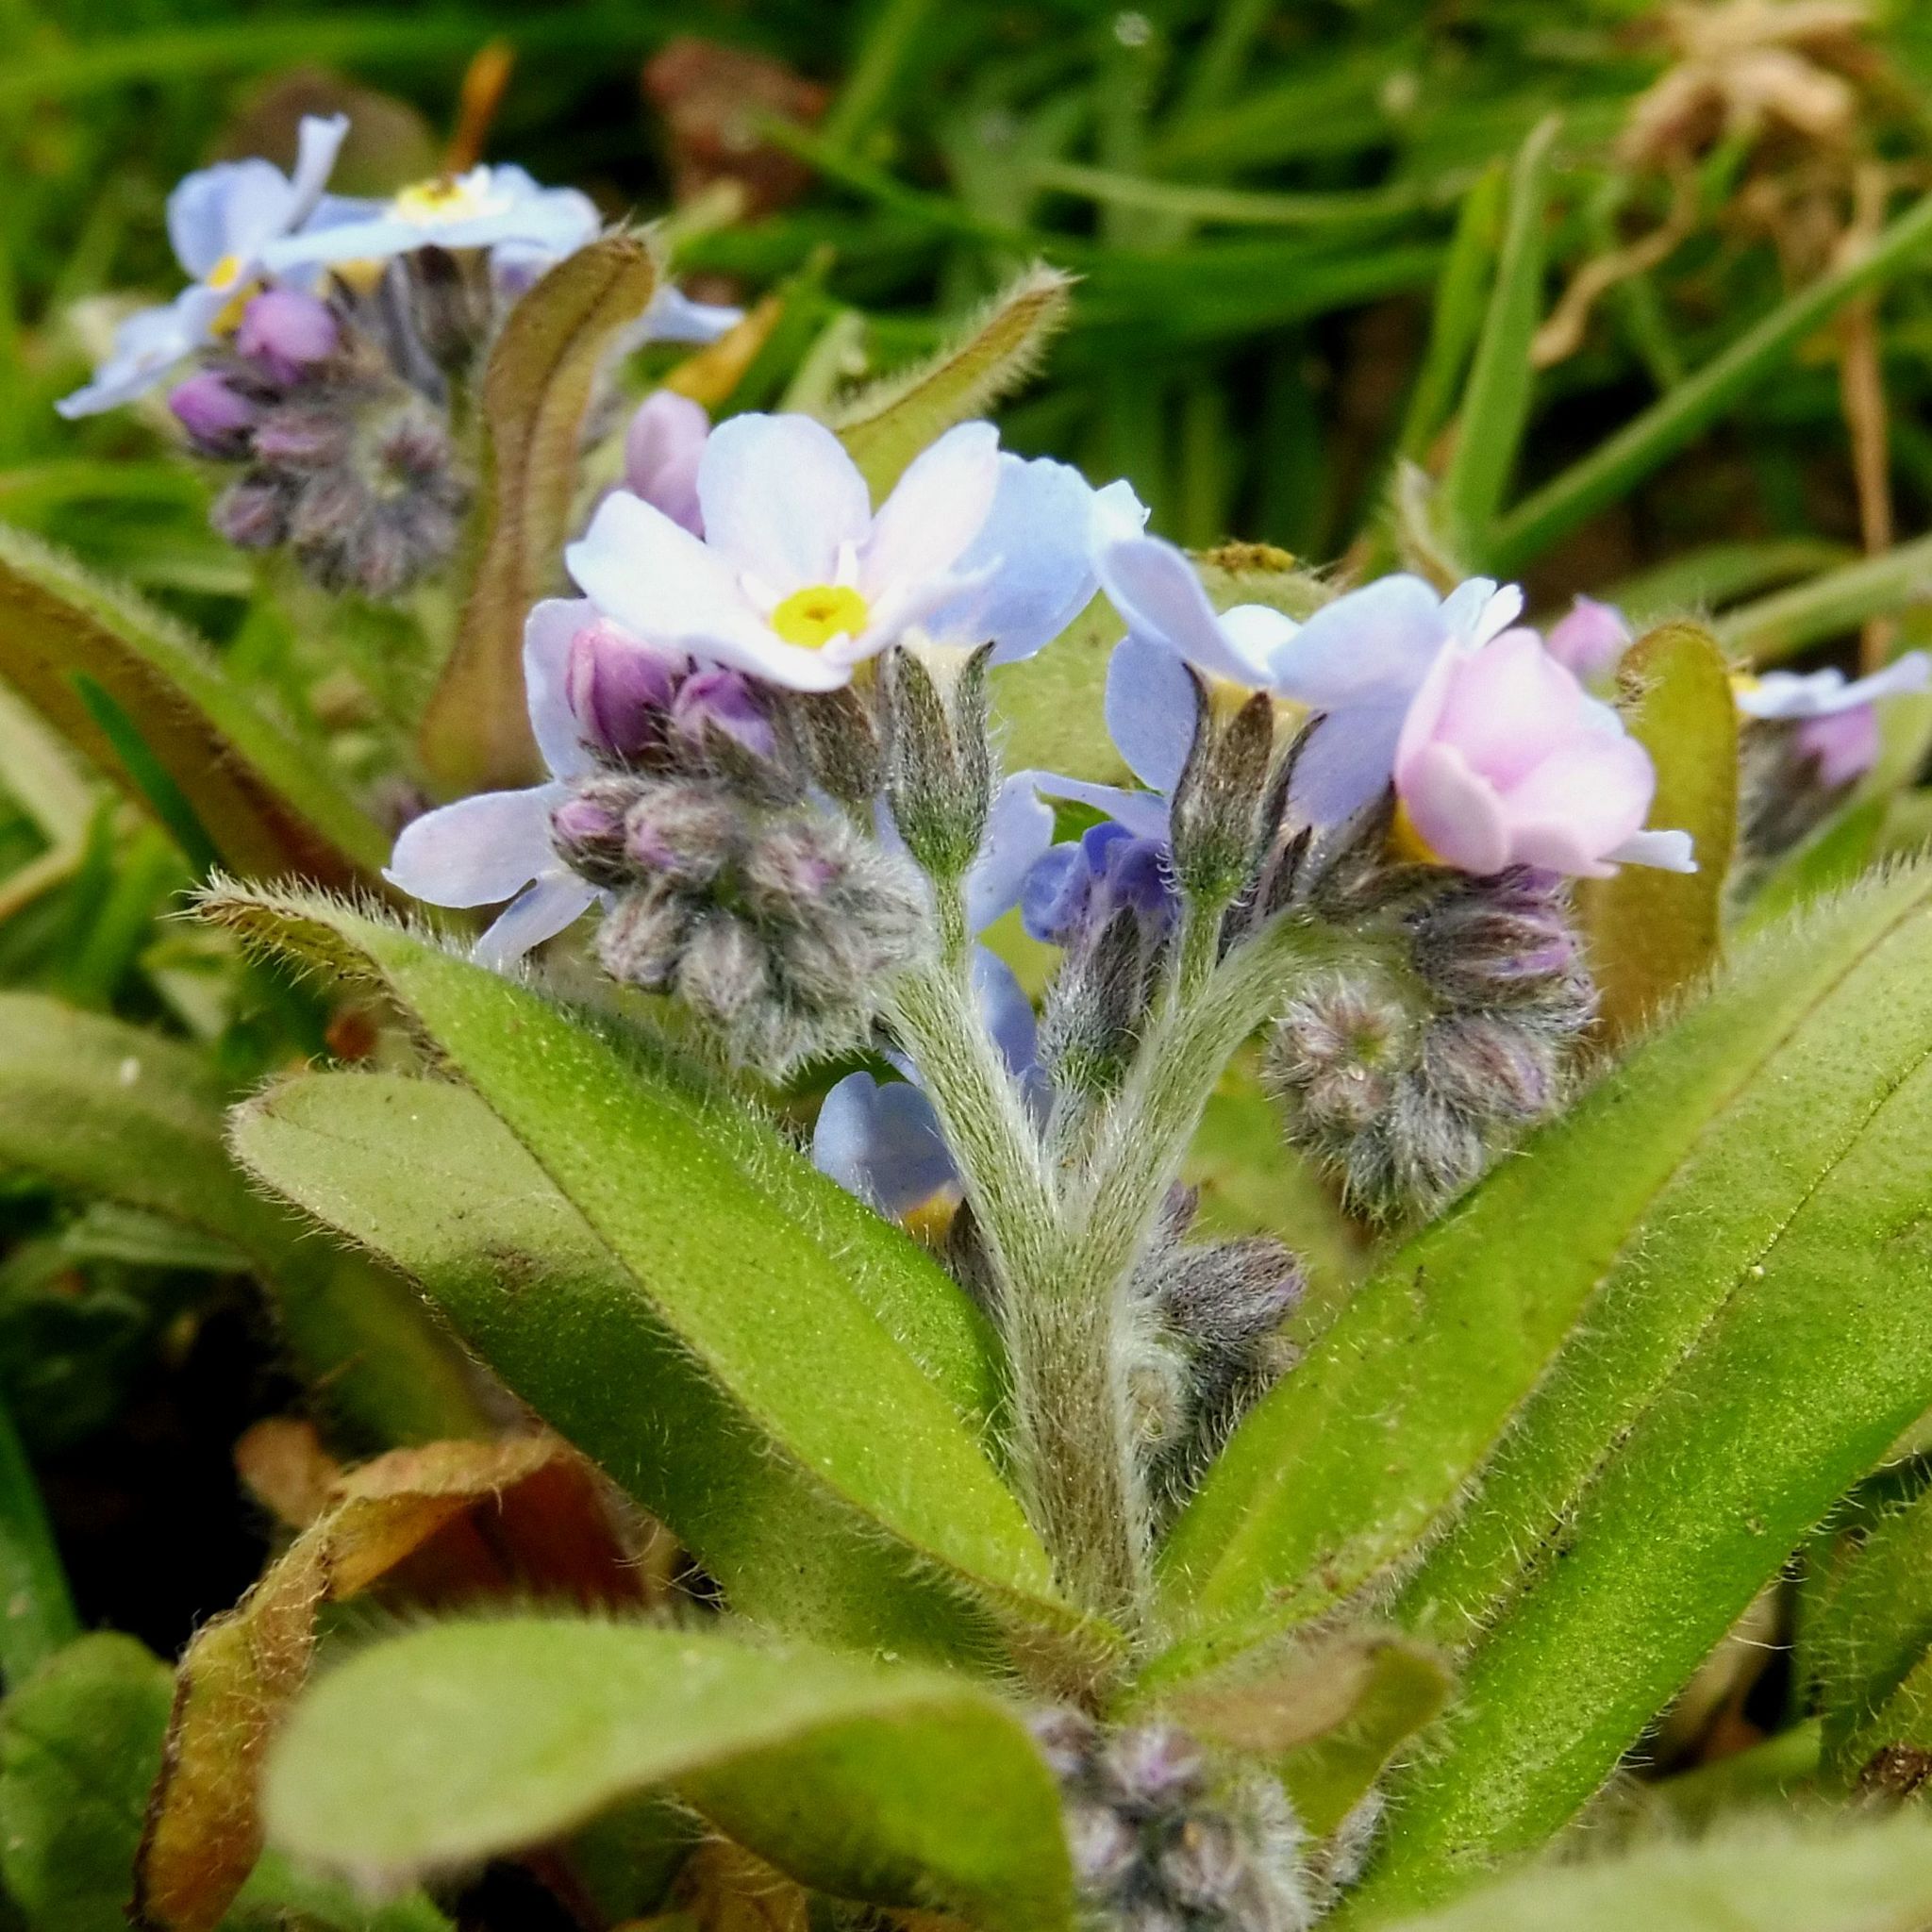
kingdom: Plantae
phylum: Tracheophyta
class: Magnoliopsida
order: Boraginales
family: Boraginaceae
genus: Myosotis
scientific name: Myosotis sylvatica
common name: Wood forget-me-not
